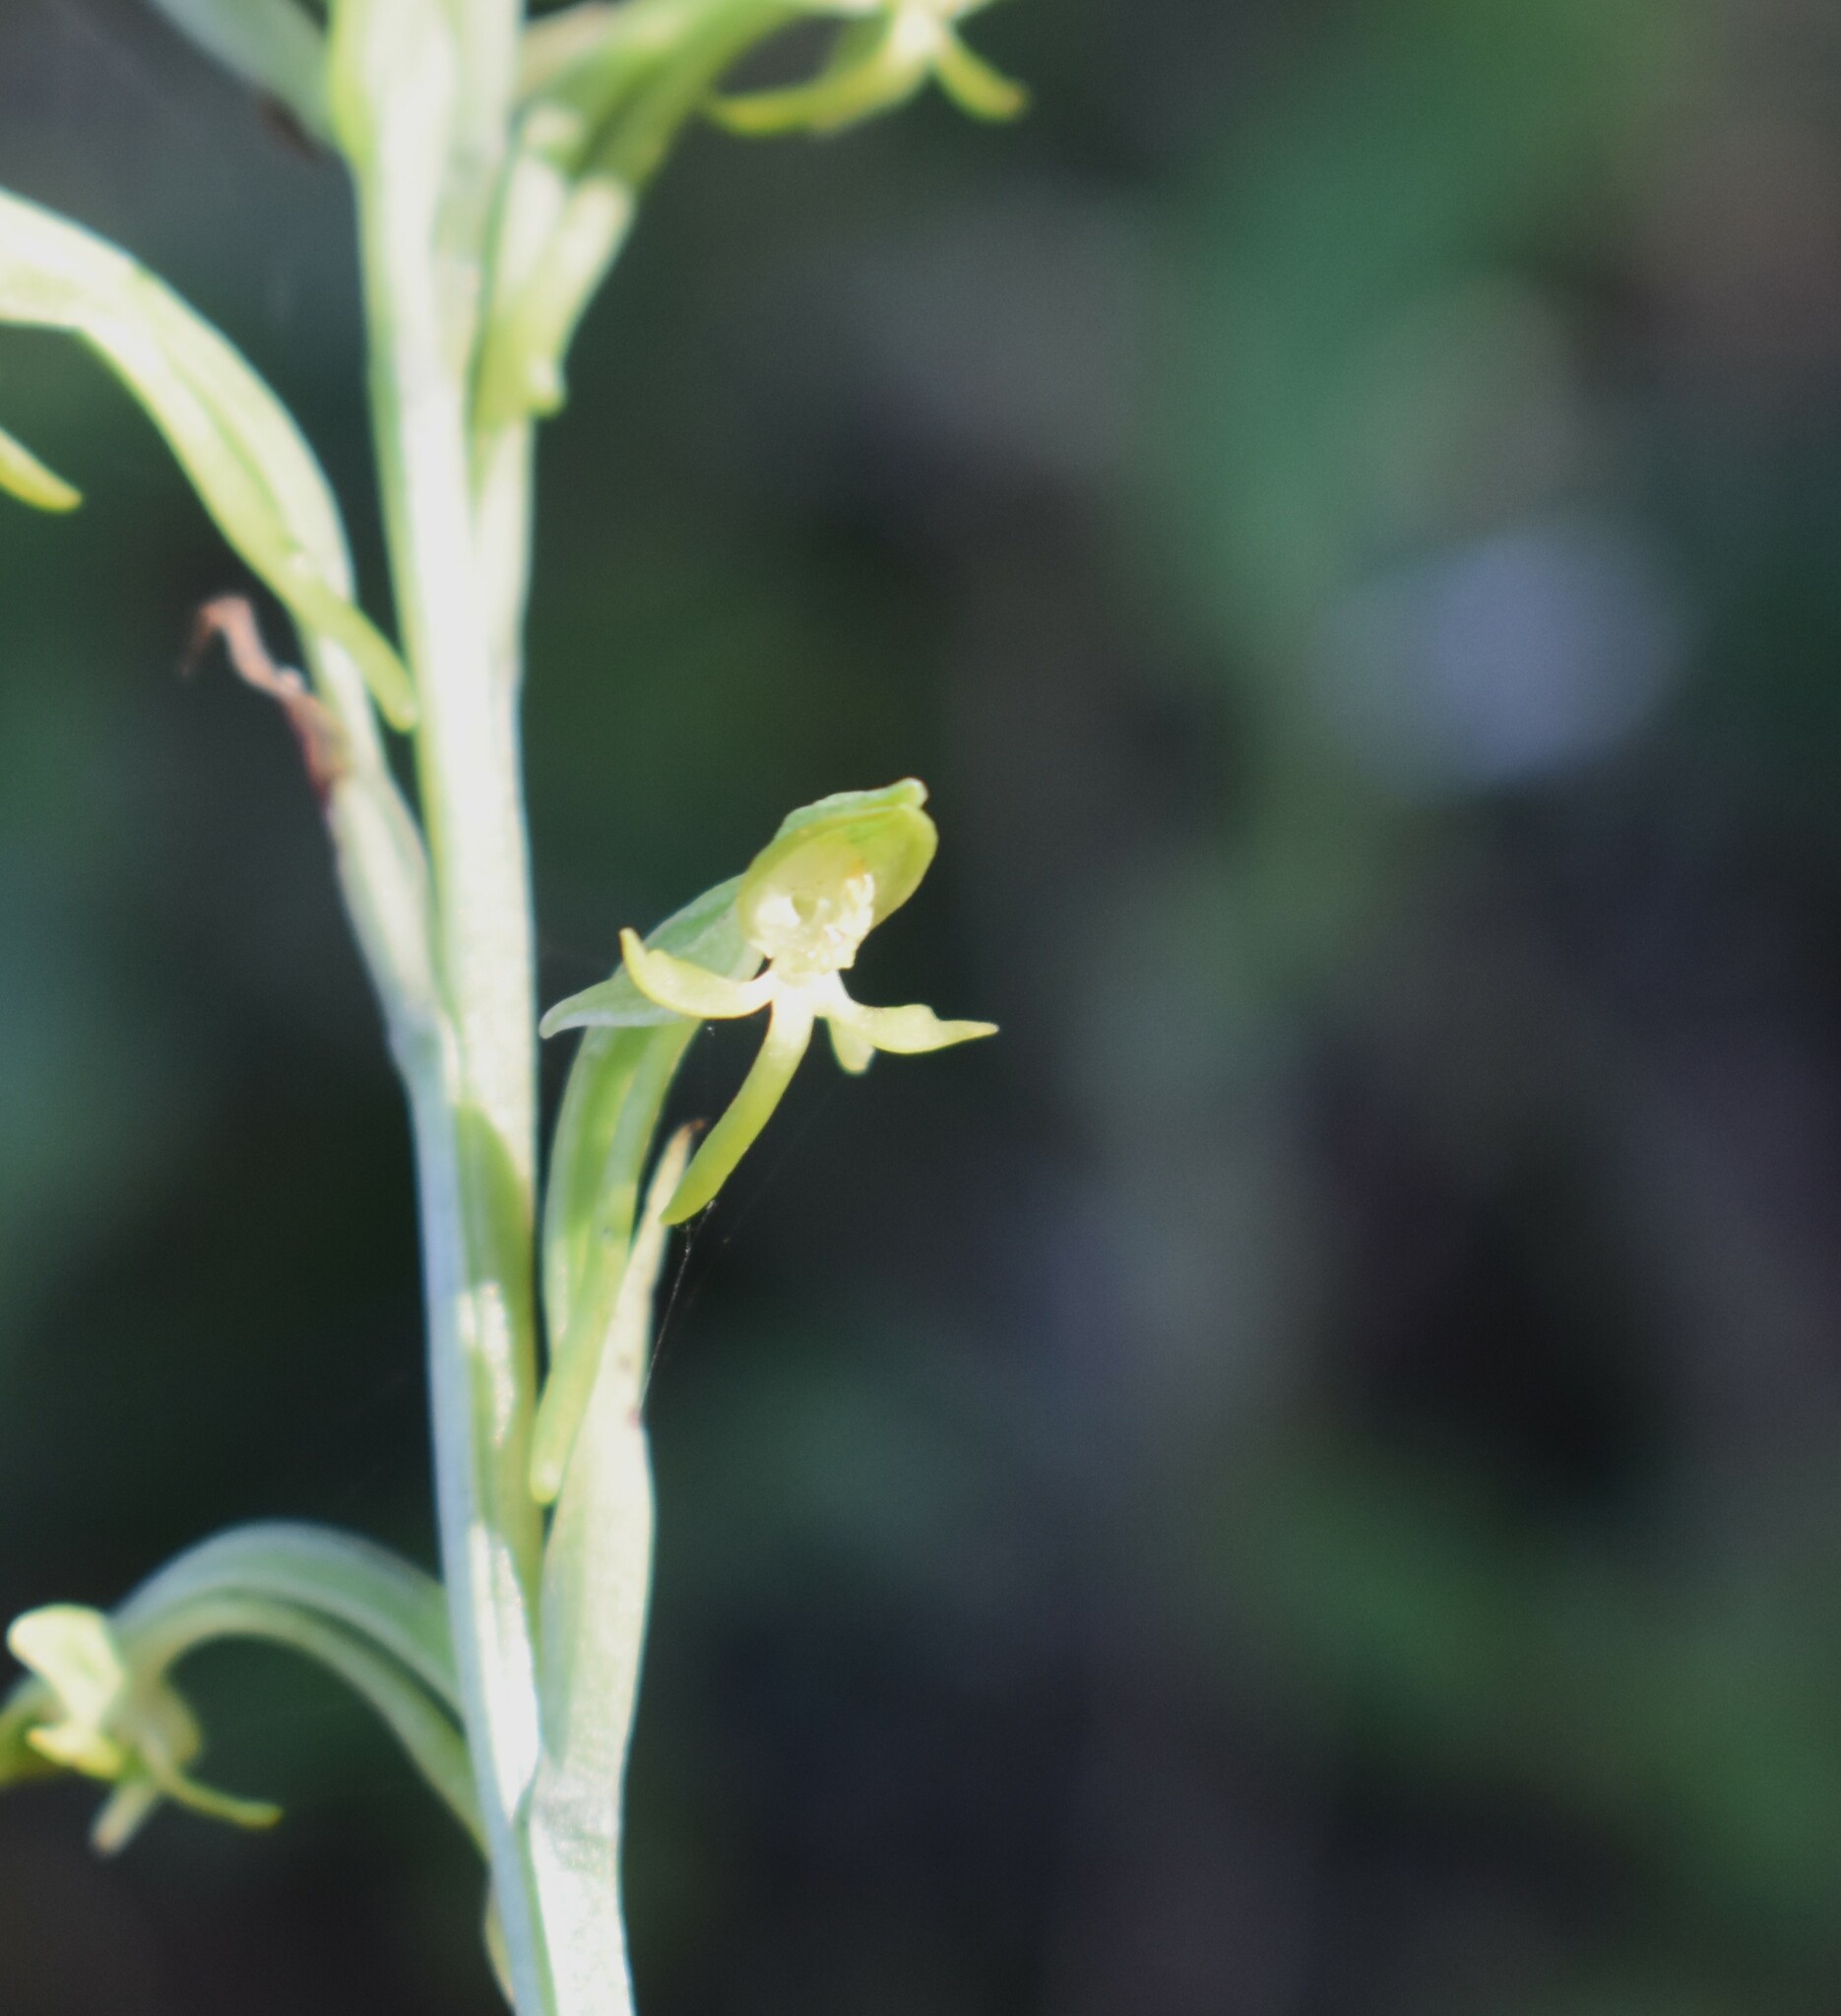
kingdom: Plantae
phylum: Tracheophyta
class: Liliopsida
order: Asparagales
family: Orchidaceae
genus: Habenaria
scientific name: Habenaria arenaria
